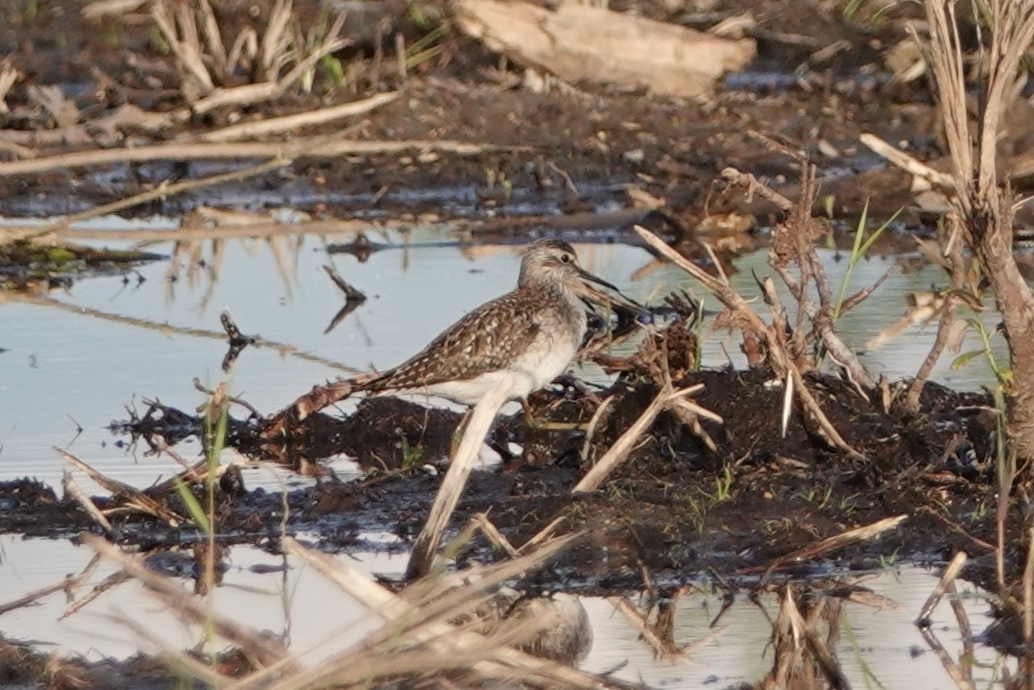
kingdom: Animalia
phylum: Chordata
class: Aves
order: Charadriiformes
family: Scolopacidae
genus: Tringa
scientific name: Tringa glareola
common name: Wood sandpiper
